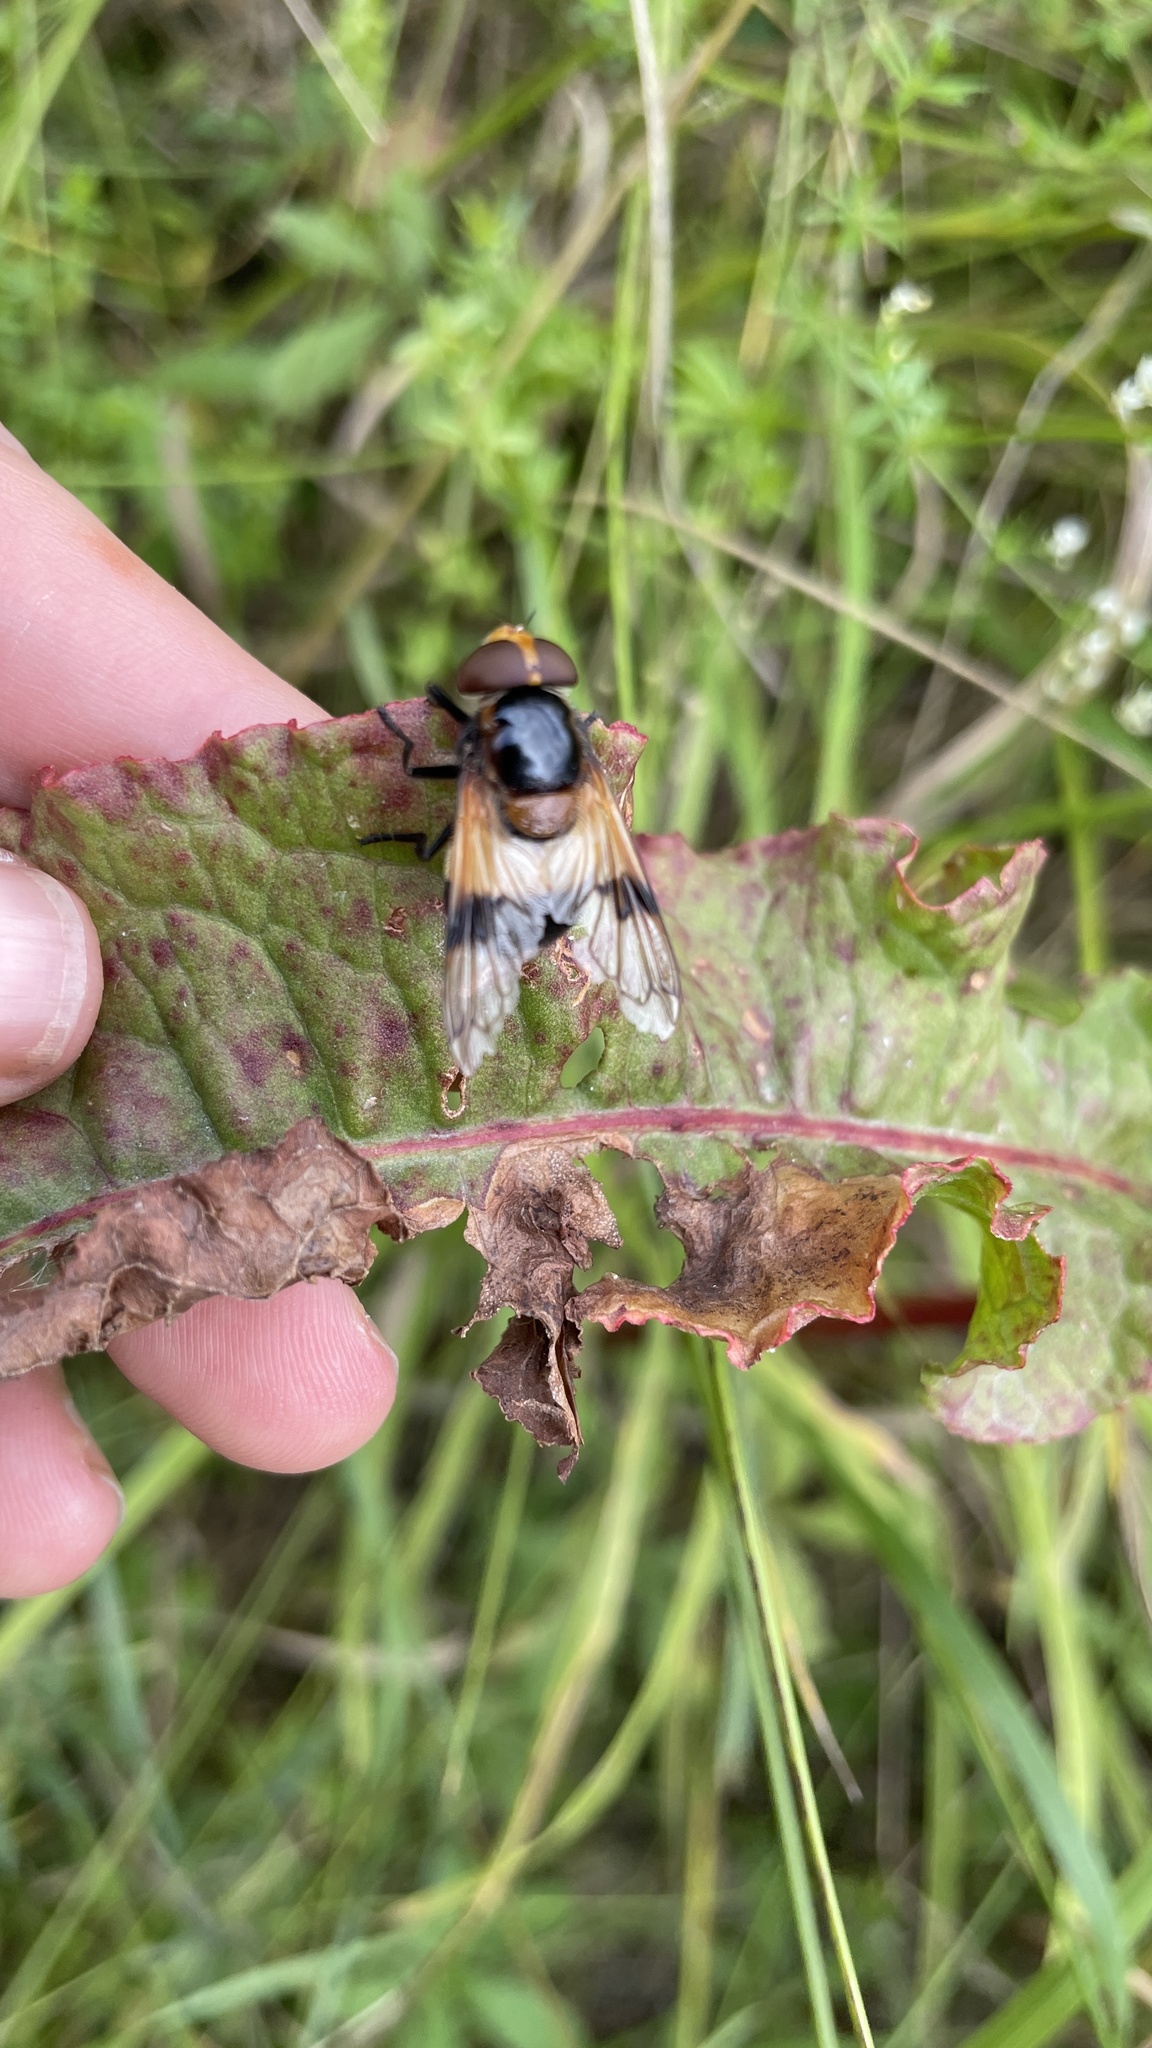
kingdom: Animalia
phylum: Arthropoda
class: Insecta
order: Diptera
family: Syrphidae
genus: Volucella
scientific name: Volucella pellucens
